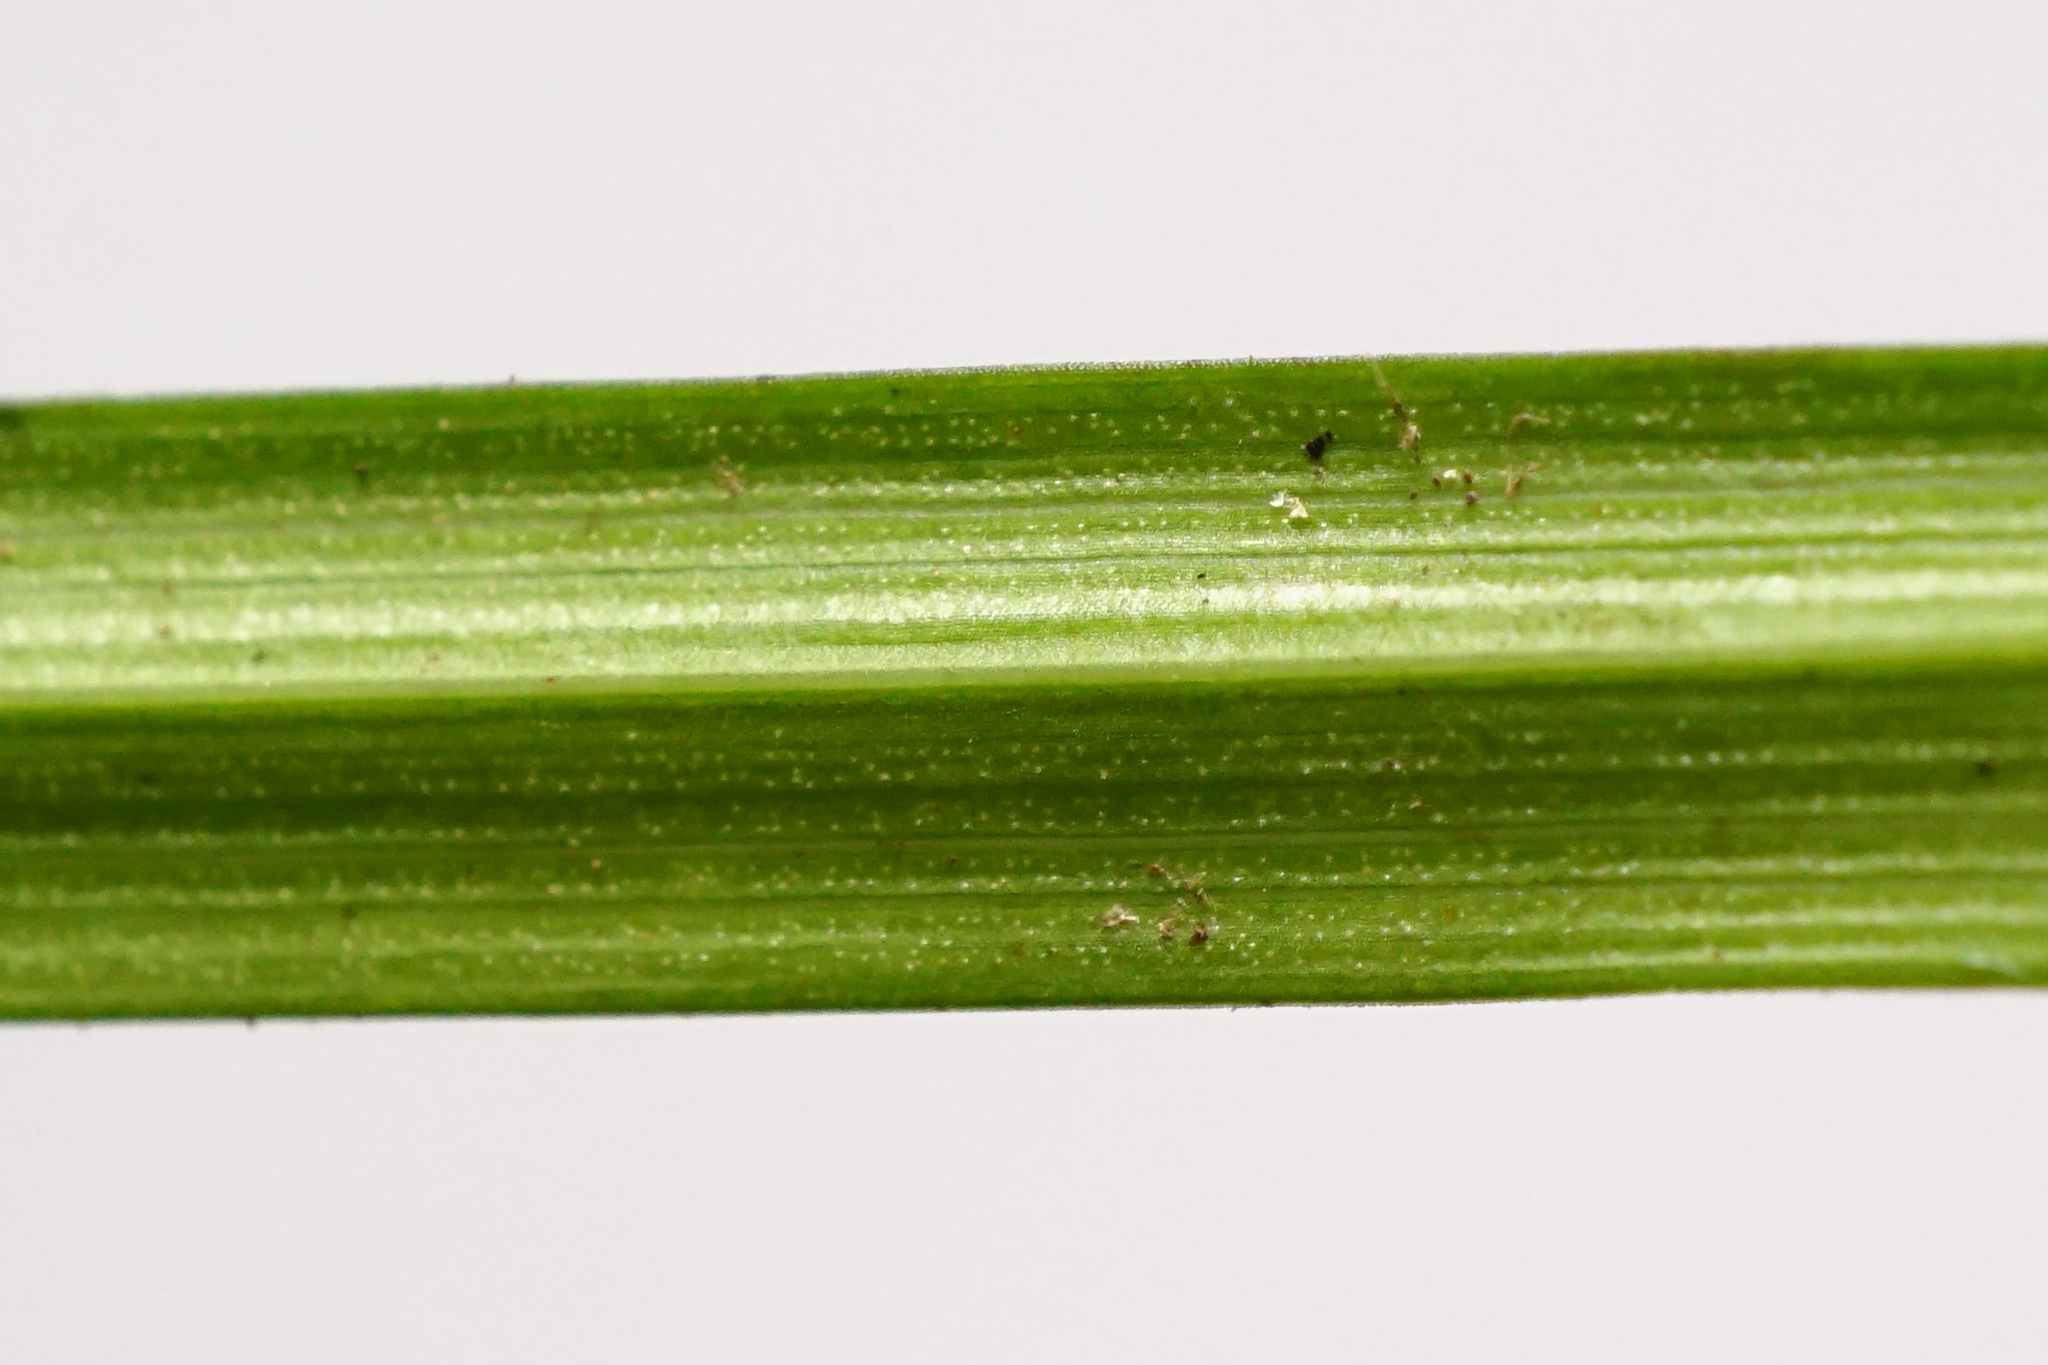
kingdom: Plantae
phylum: Tracheophyta
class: Liliopsida
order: Poales
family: Cyperaceae
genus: Carex
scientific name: Carex digitata
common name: Fingered sedge
